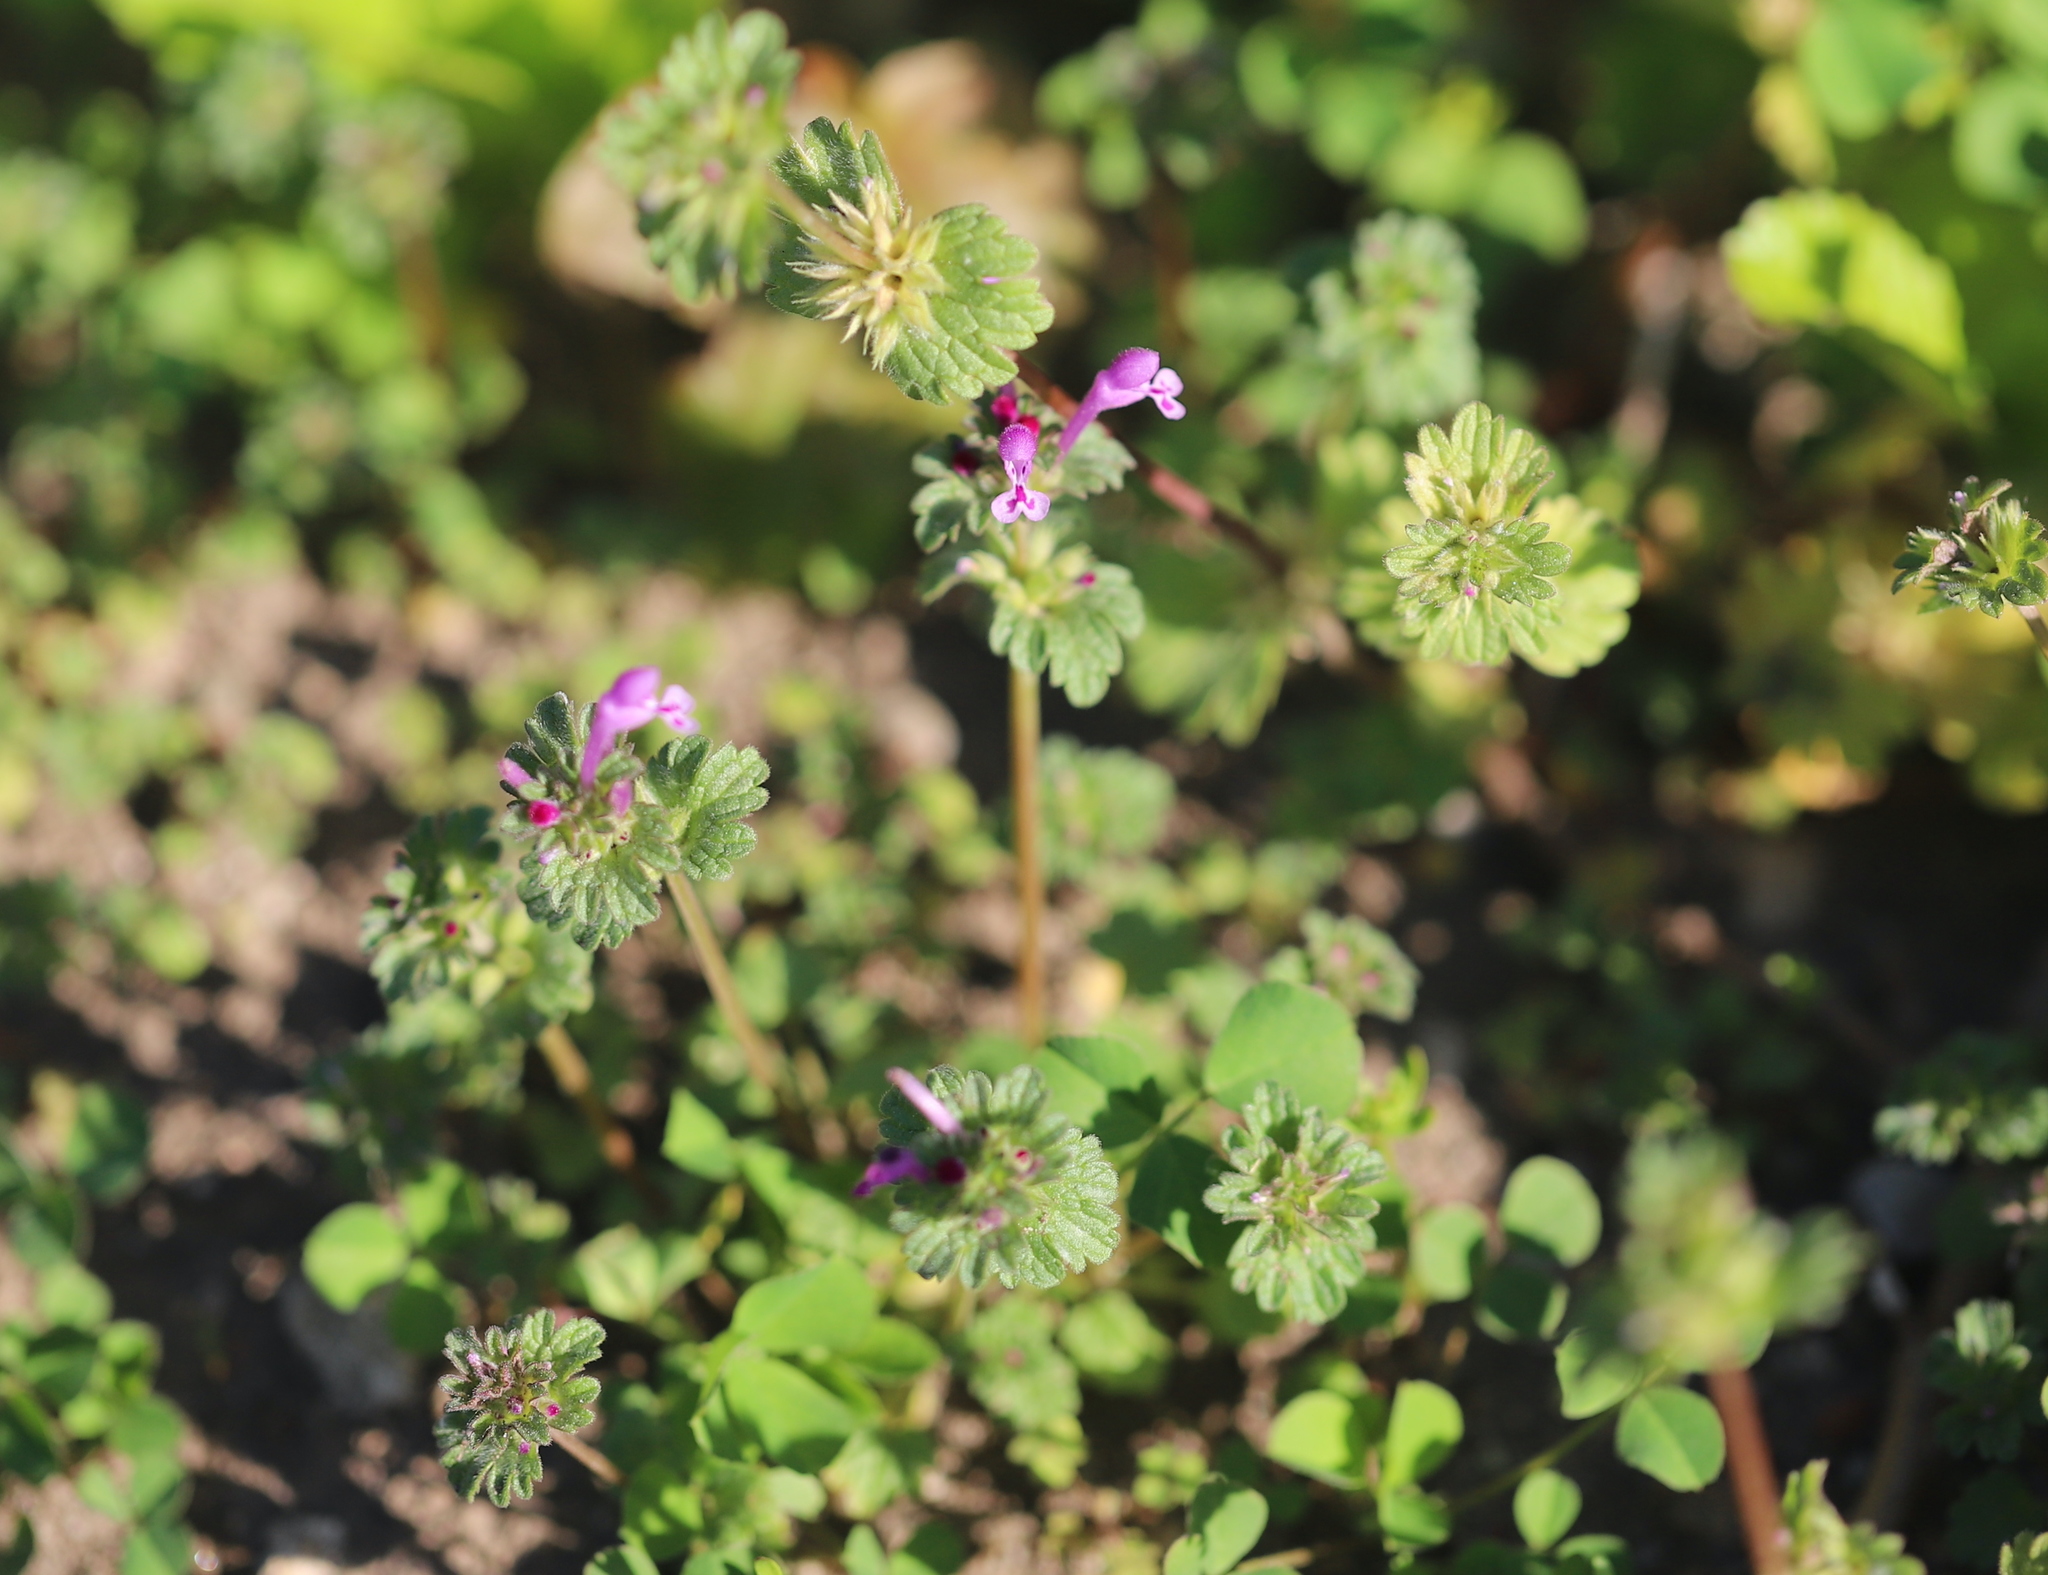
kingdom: Plantae
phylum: Tracheophyta
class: Magnoliopsida
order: Lamiales
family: Lamiaceae
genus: Lamium
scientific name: Lamium amplexicaule
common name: Henbit dead-nettle
